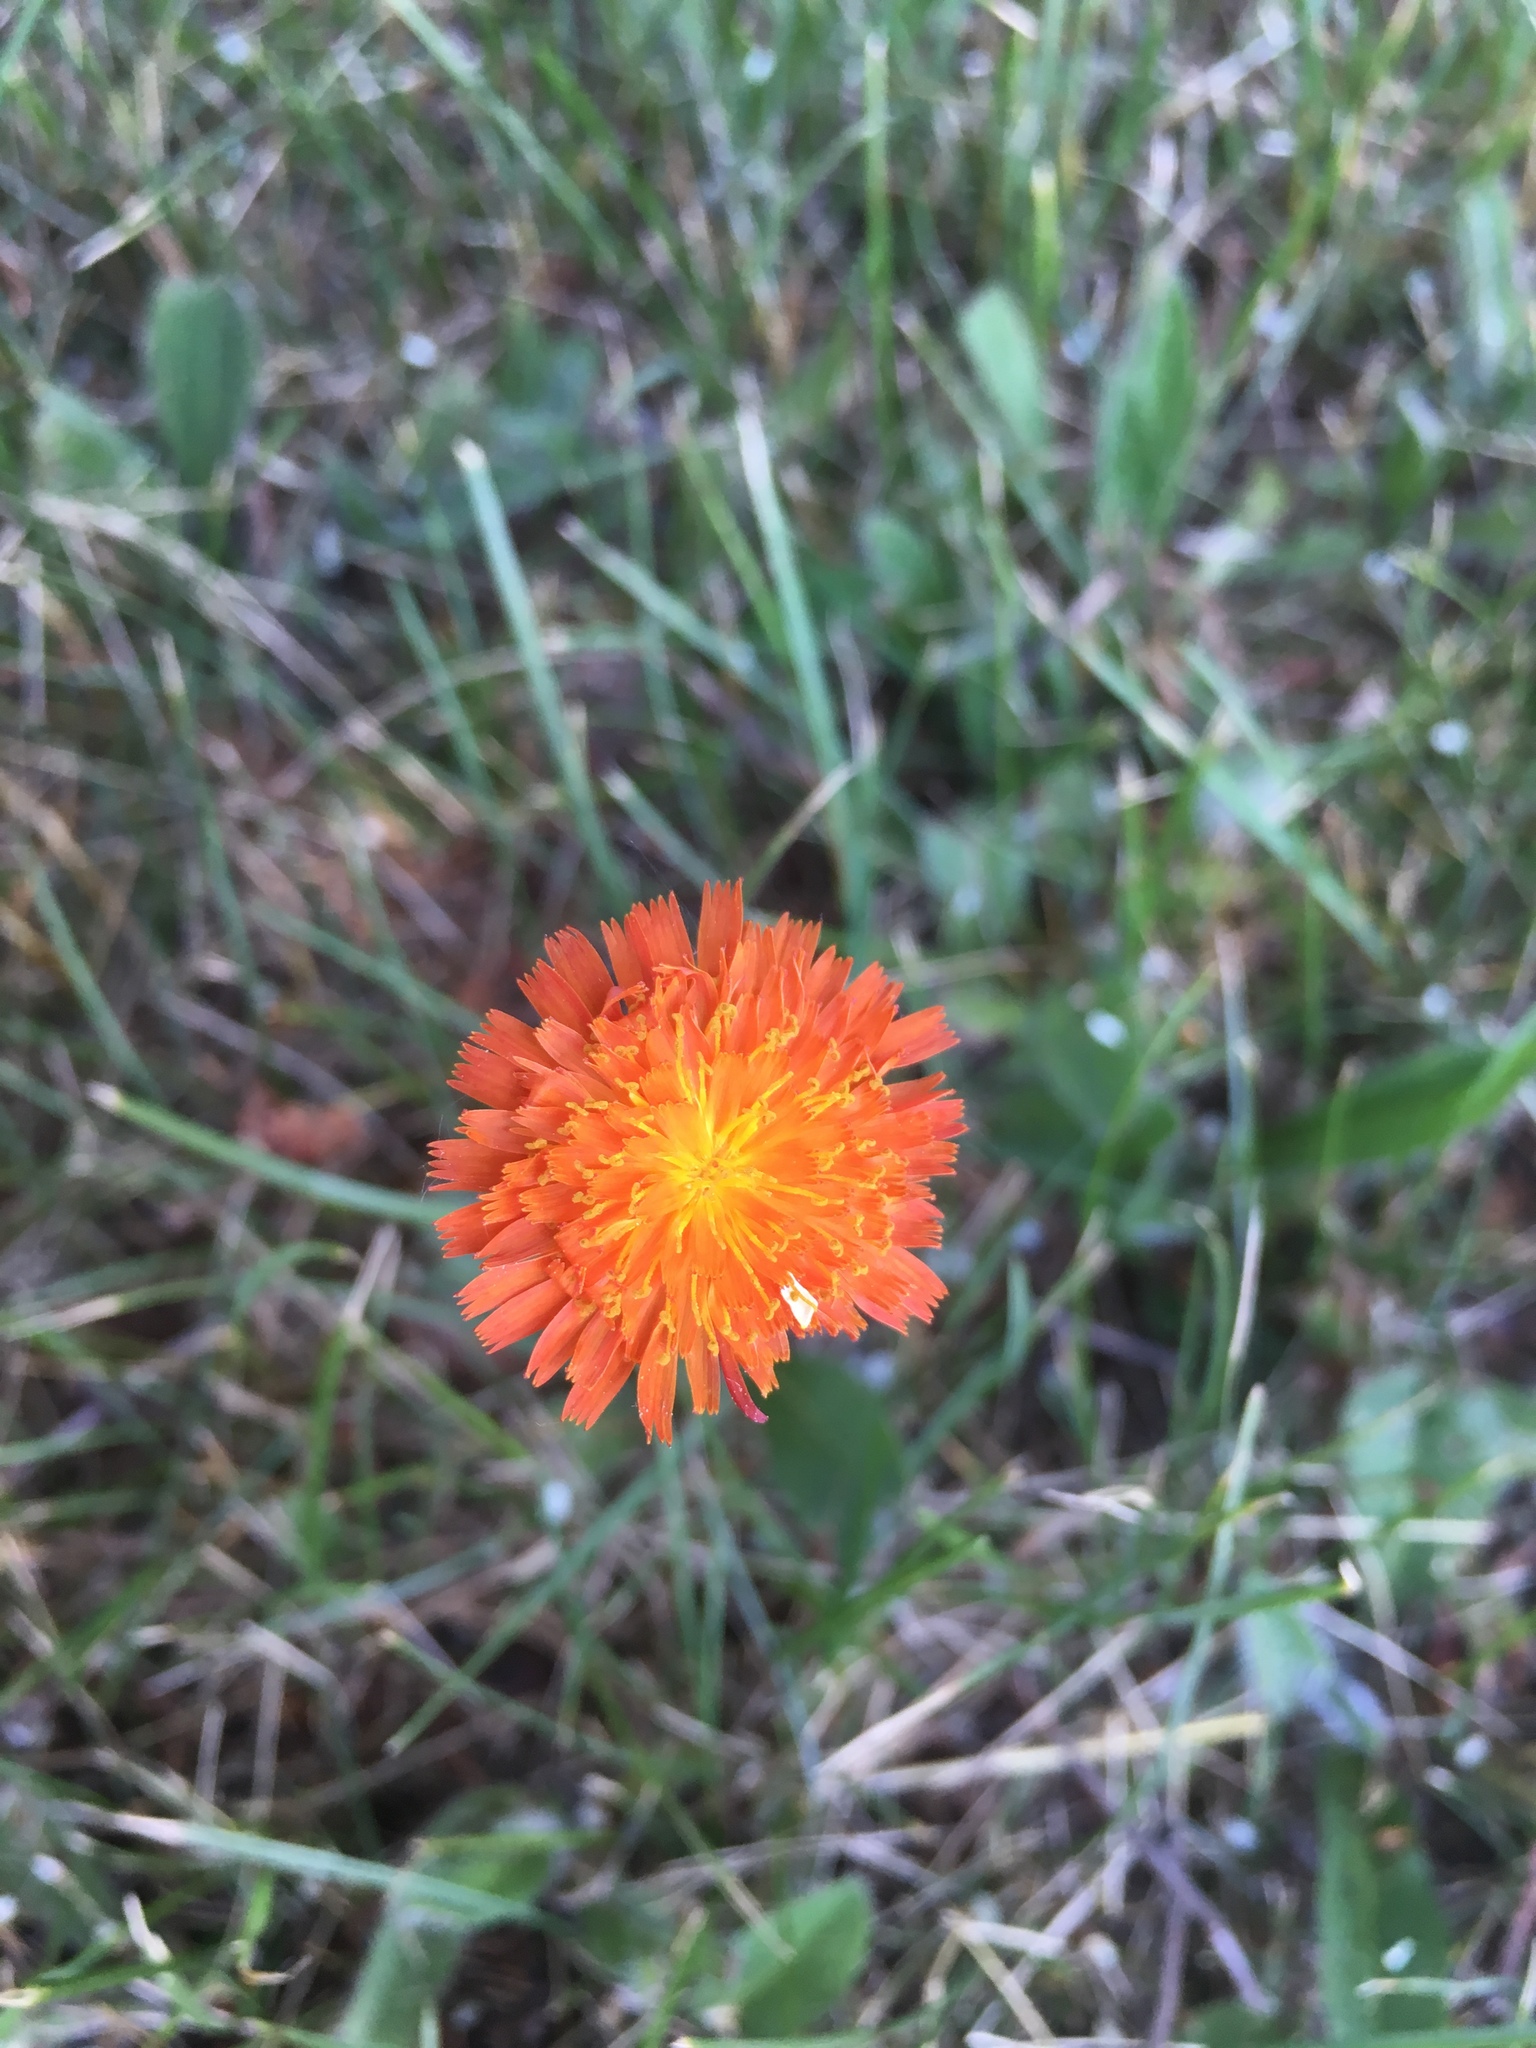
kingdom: Plantae
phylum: Tracheophyta
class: Magnoliopsida
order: Asterales
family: Asteraceae
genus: Pilosella
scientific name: Pilosella aurantiaca
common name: Fox-and-cubs
